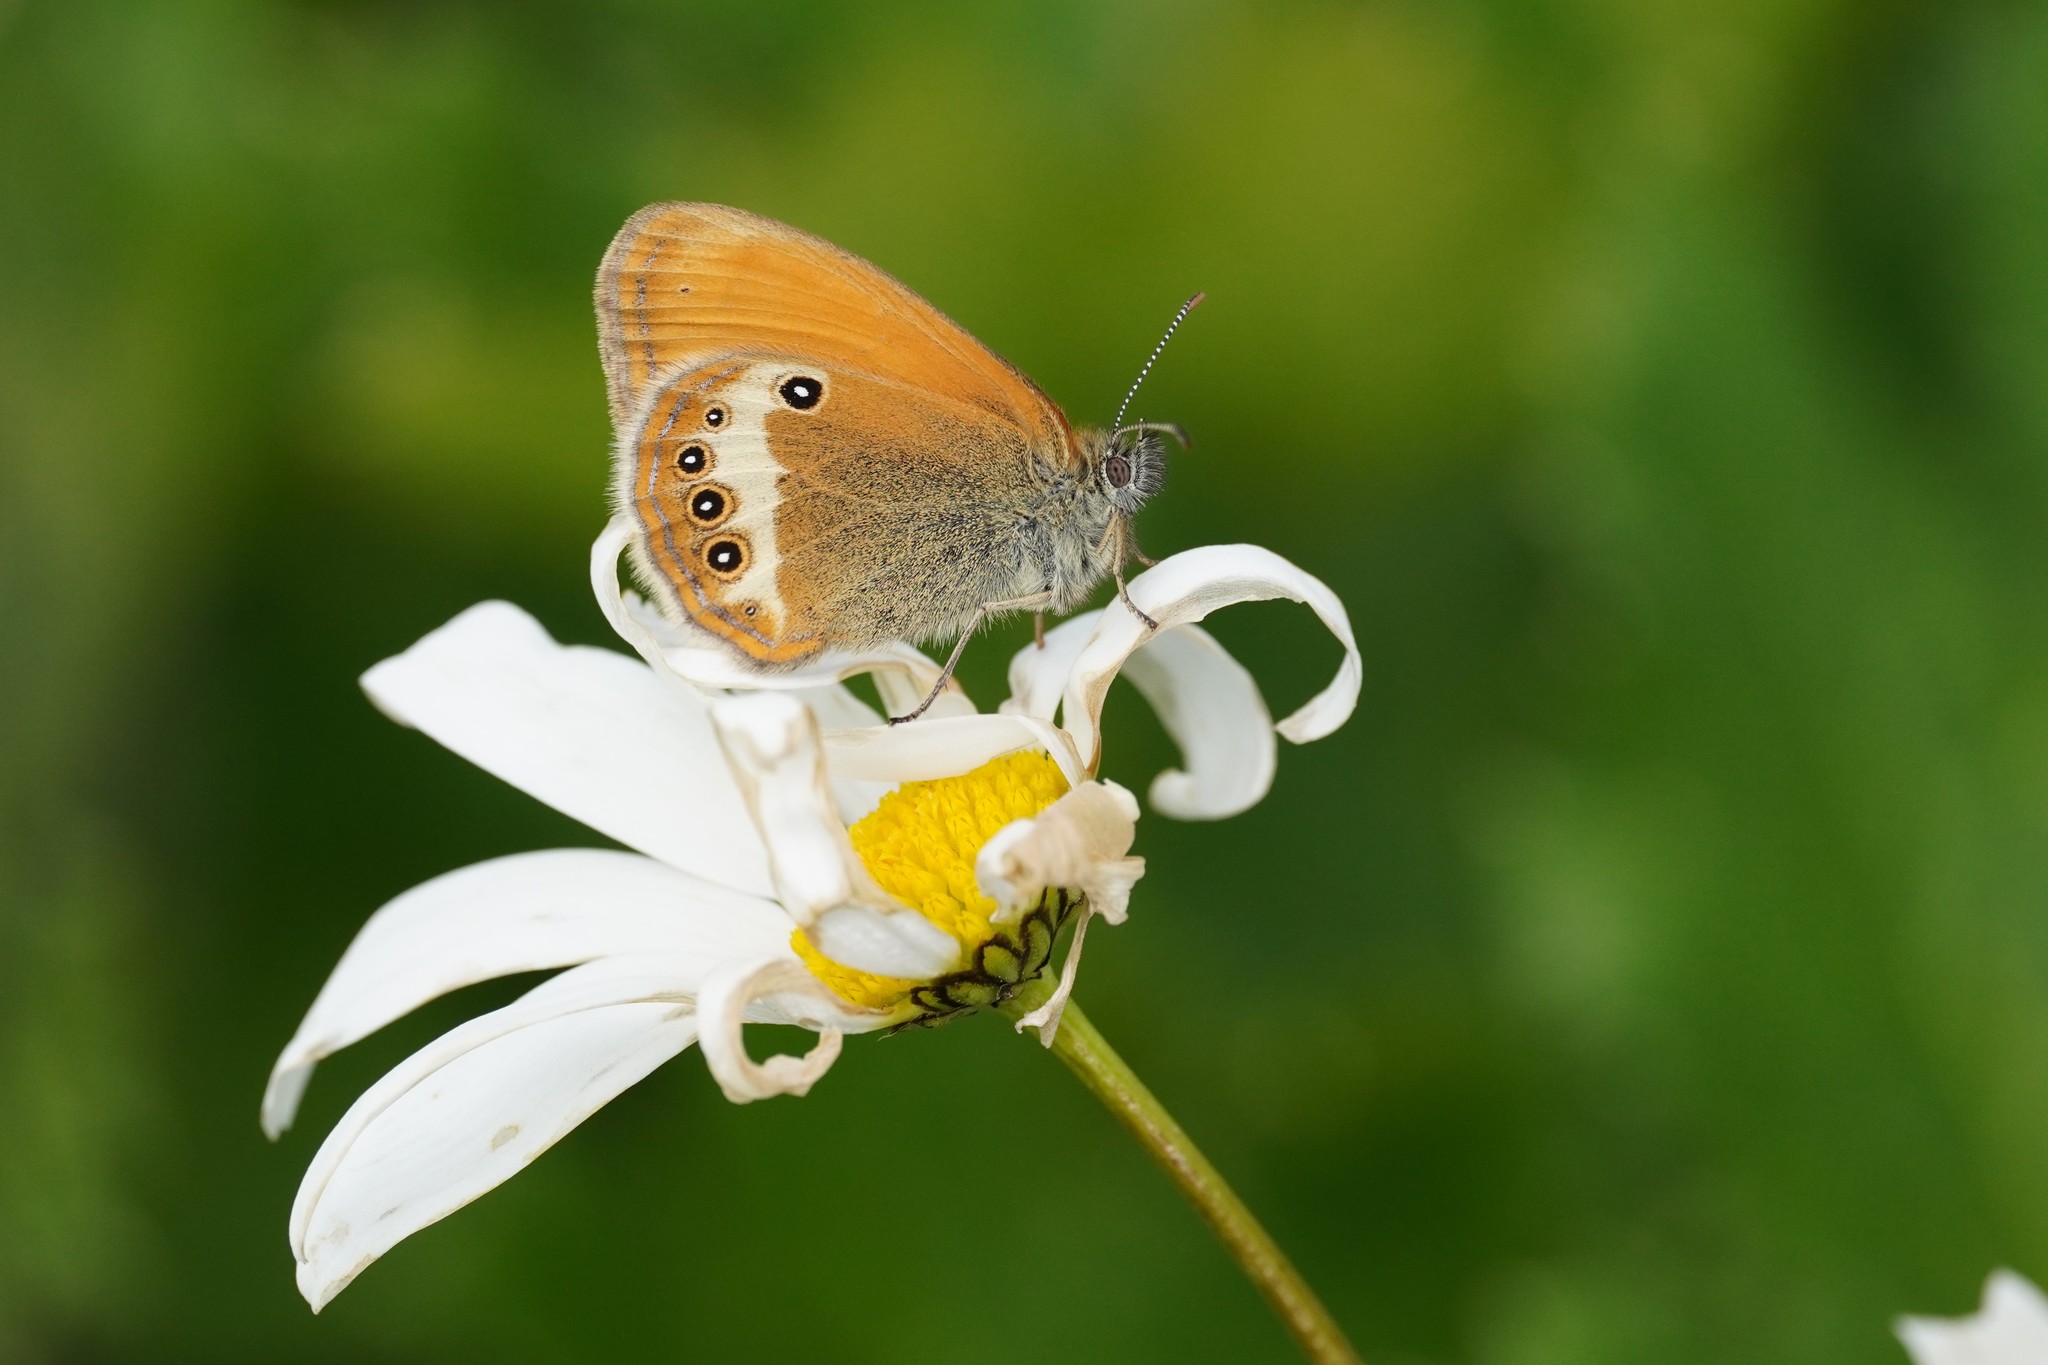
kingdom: Animalia
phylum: Arthropoda
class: Insecta
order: Lepidoptera
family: Nymphalidae
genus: Coenonympha
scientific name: Coenonympha arcania
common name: Pearly heath
